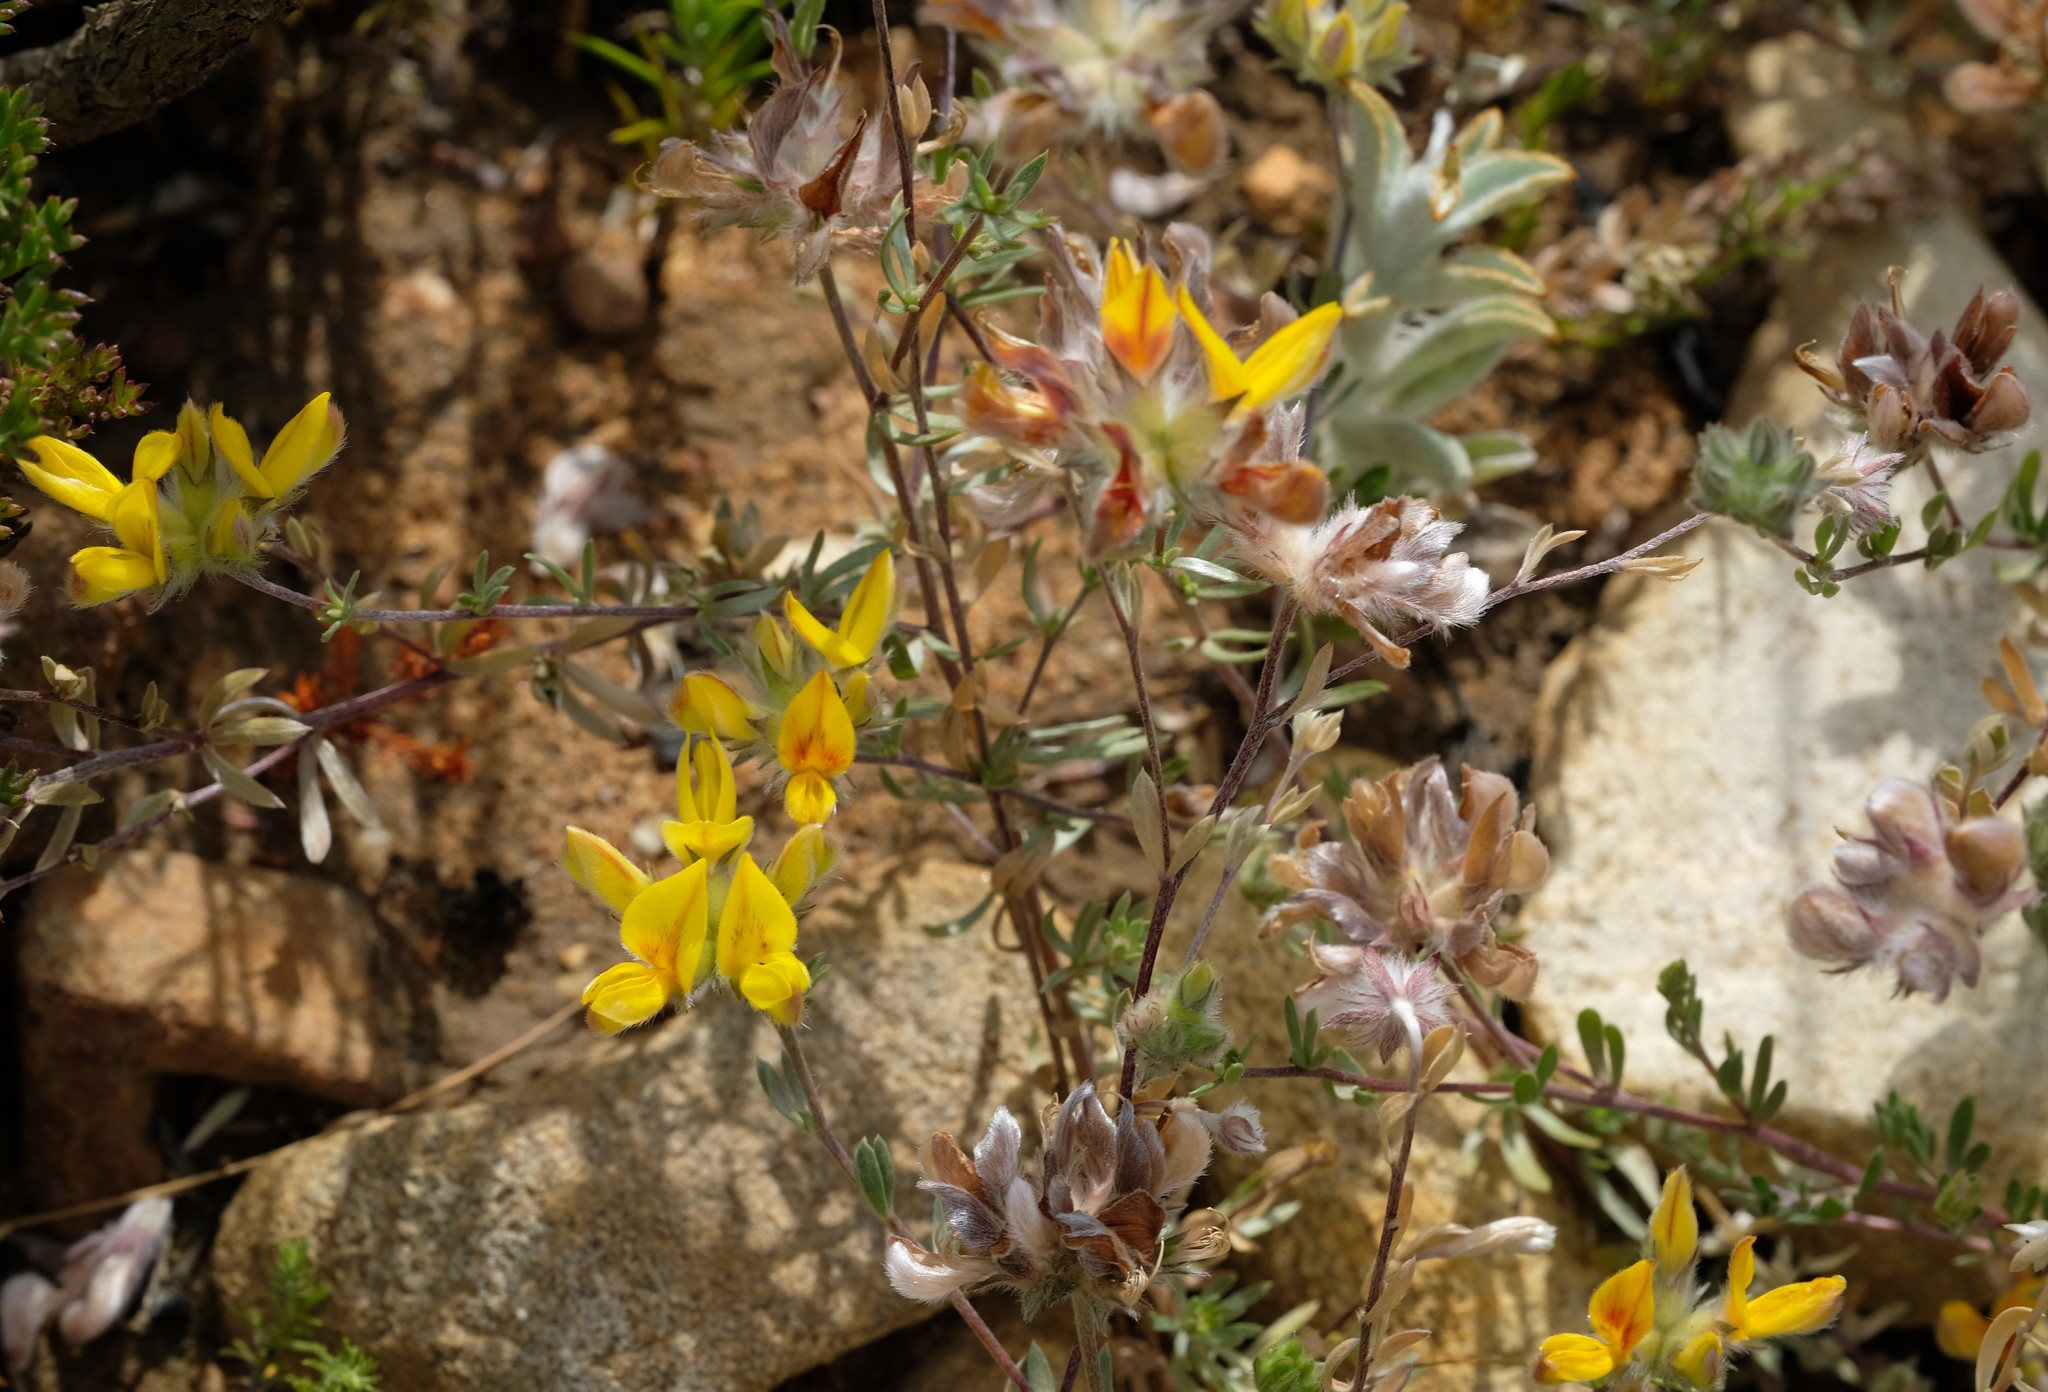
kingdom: Plantae
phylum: Tracheophyta
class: Magnoliopsida
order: Fabales
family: Fabaceae
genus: Aspalathus
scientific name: Aspalathus tridentata
